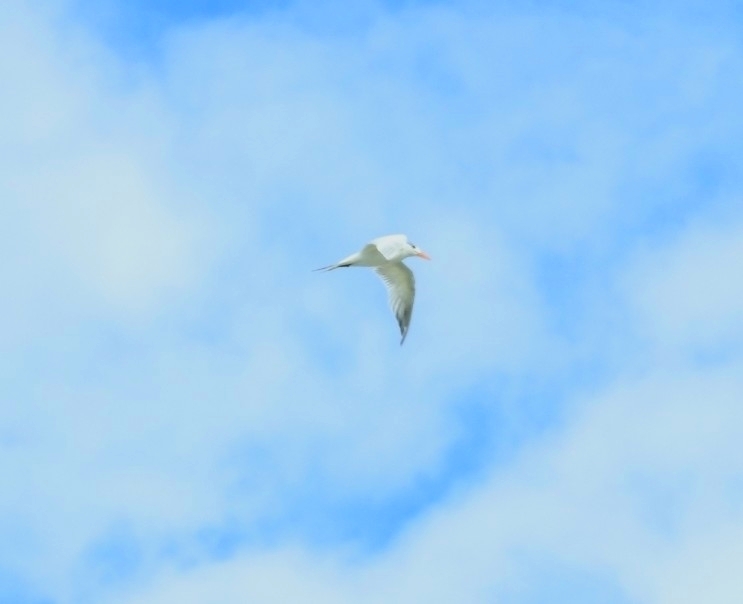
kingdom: Animalia
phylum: Chordata
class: Aves
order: Charadriiformes
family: Laridae
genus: Thalasseus
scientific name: Thalasseus maximus
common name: Royal tern
